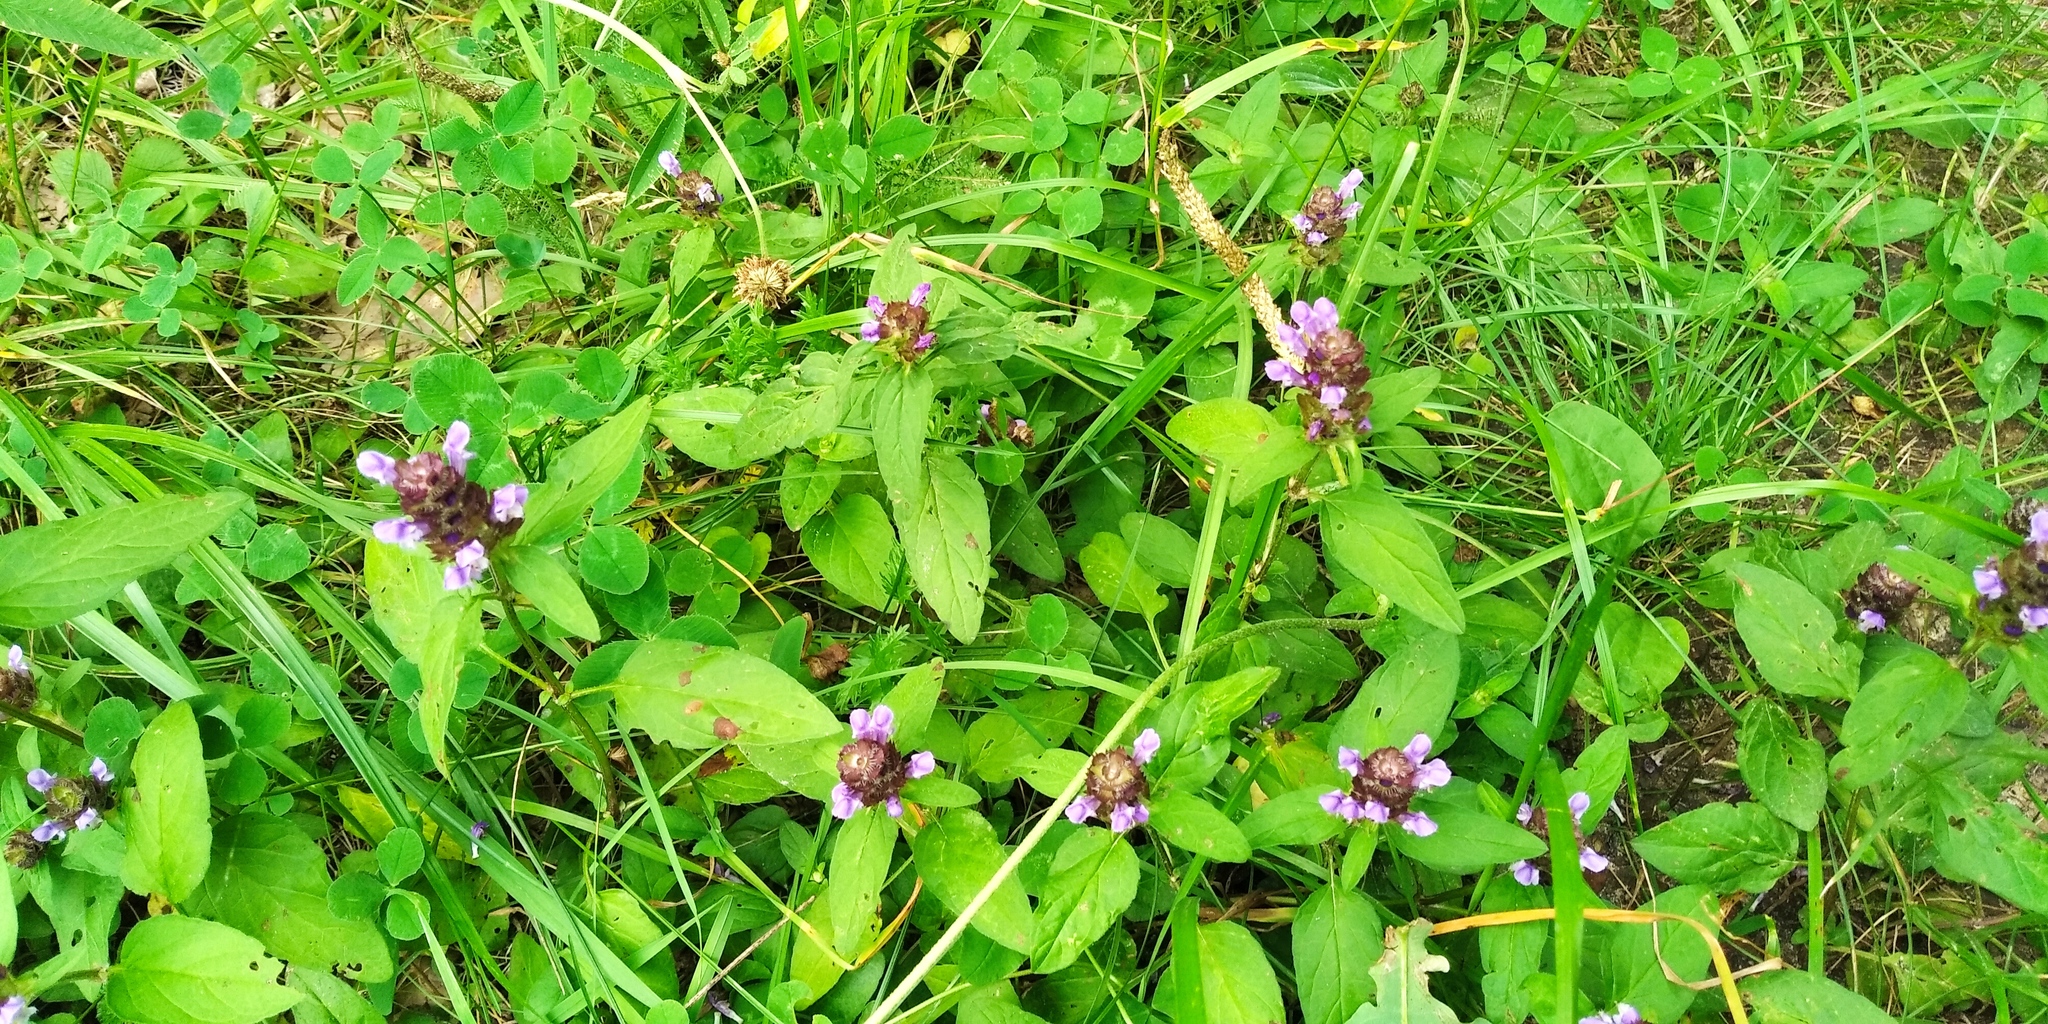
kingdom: Plantae
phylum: Tracheophyta
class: Magnoliopsida
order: Lamiales
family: Lamiaceae
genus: Prunella
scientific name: Prunella vulgaris
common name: Heal-all
